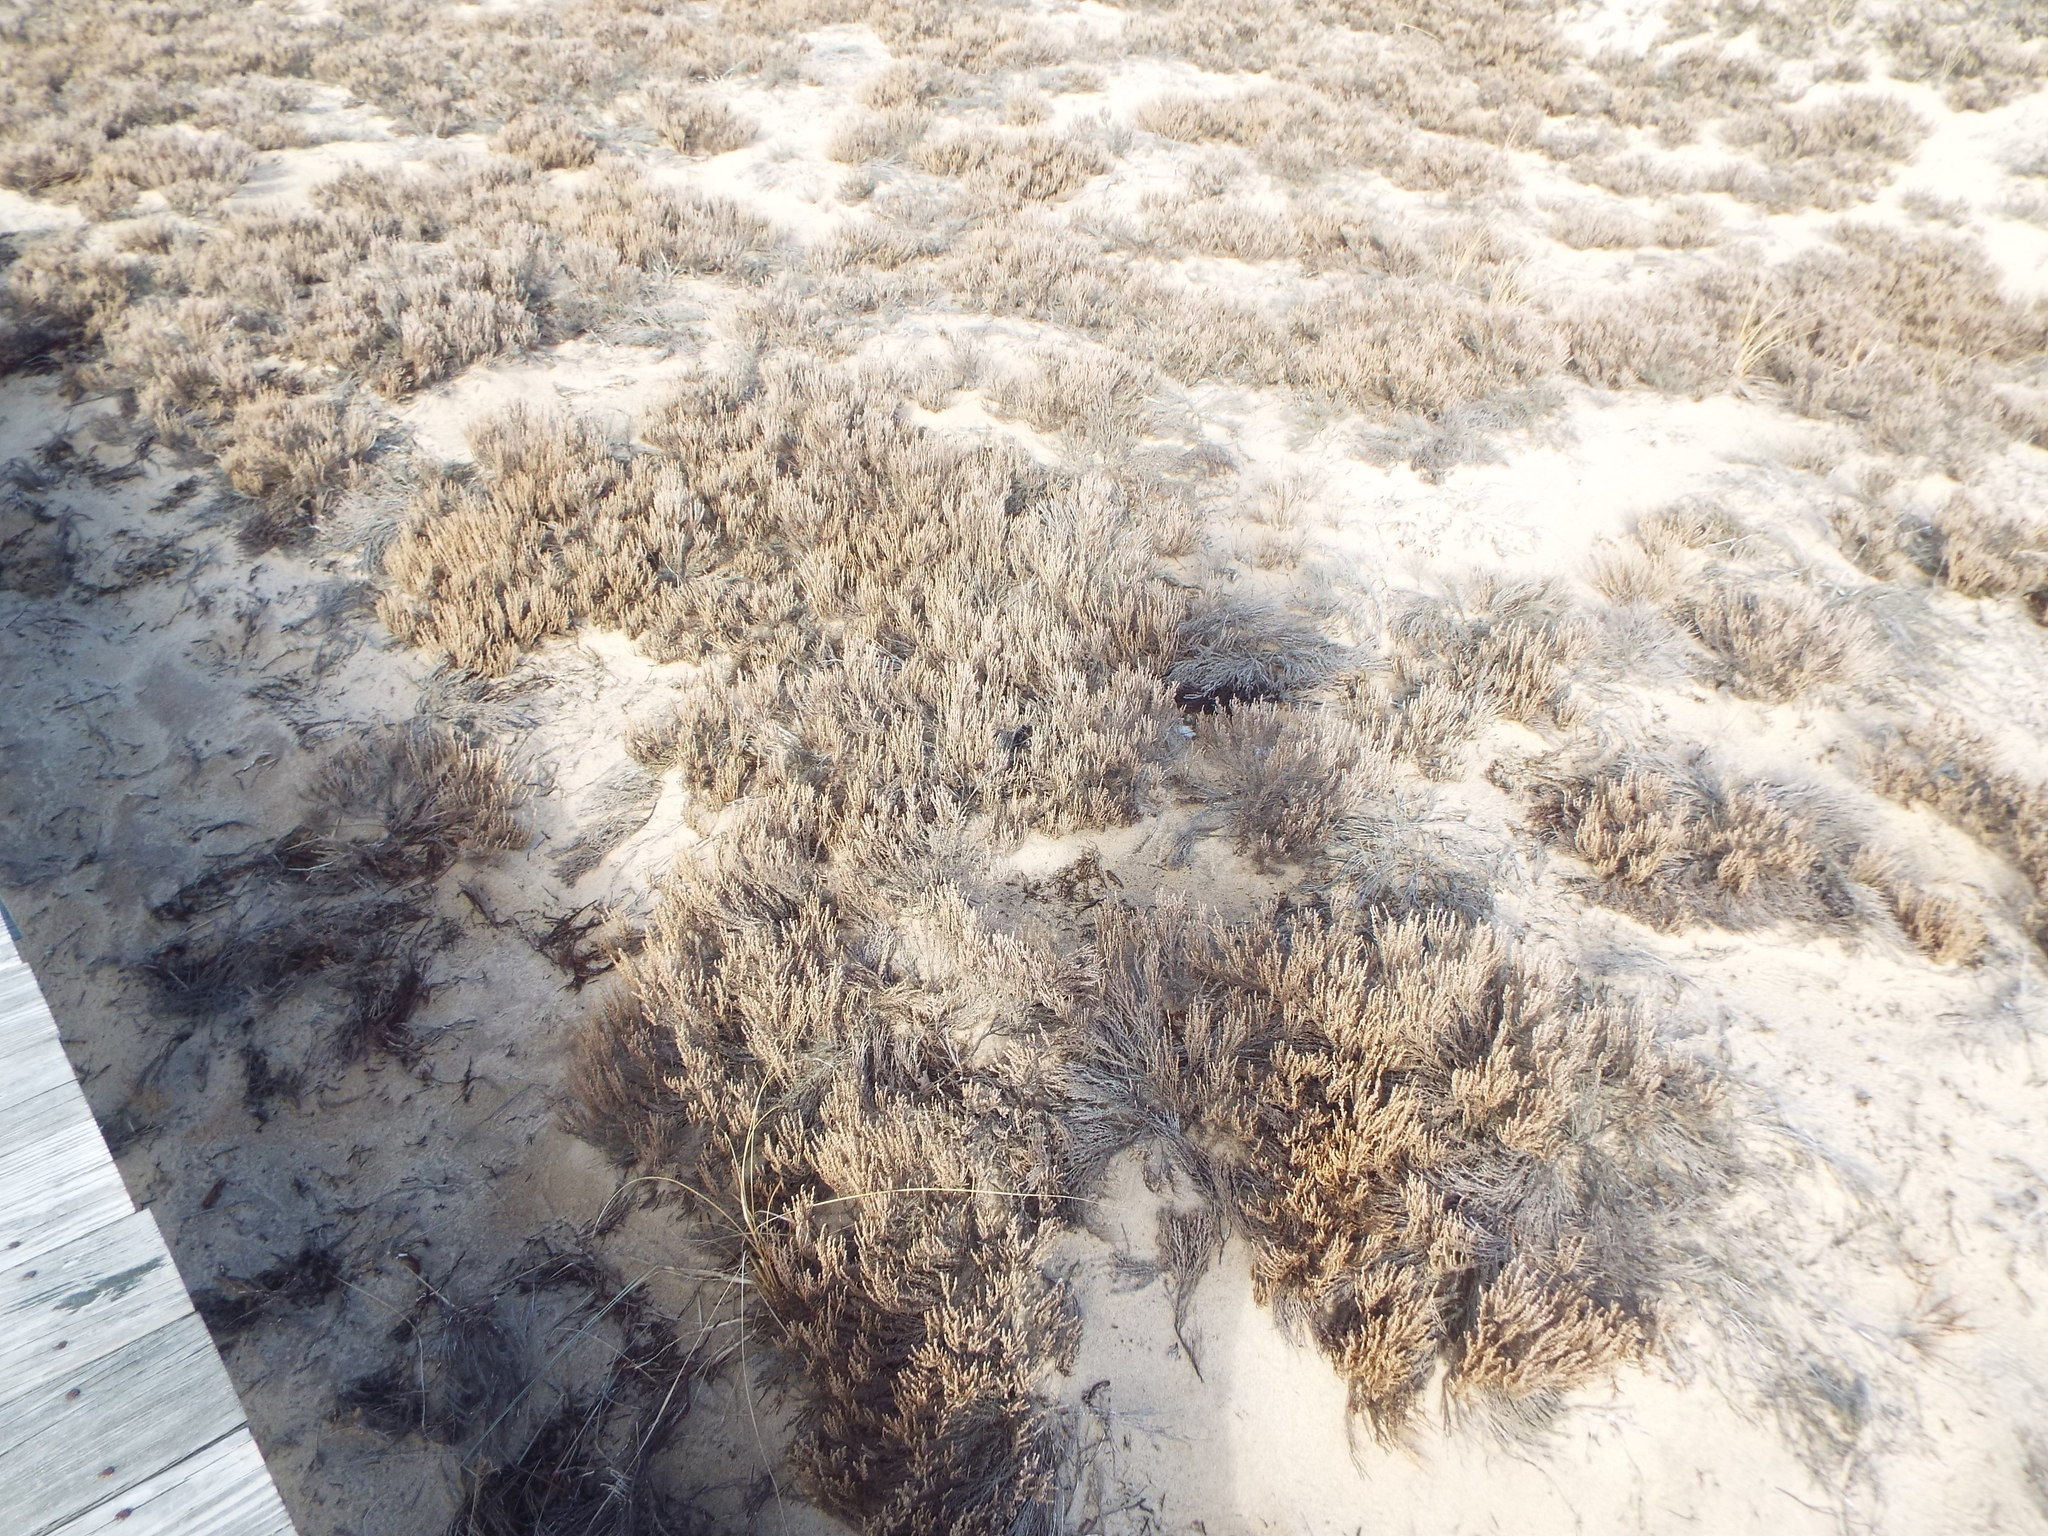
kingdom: Plantae
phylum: Tracheophyta
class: Magnoliopsida
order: Malvales
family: Cistaceae
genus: Hudsonia
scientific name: Hudsonia tomentosa
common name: Beach-heath
